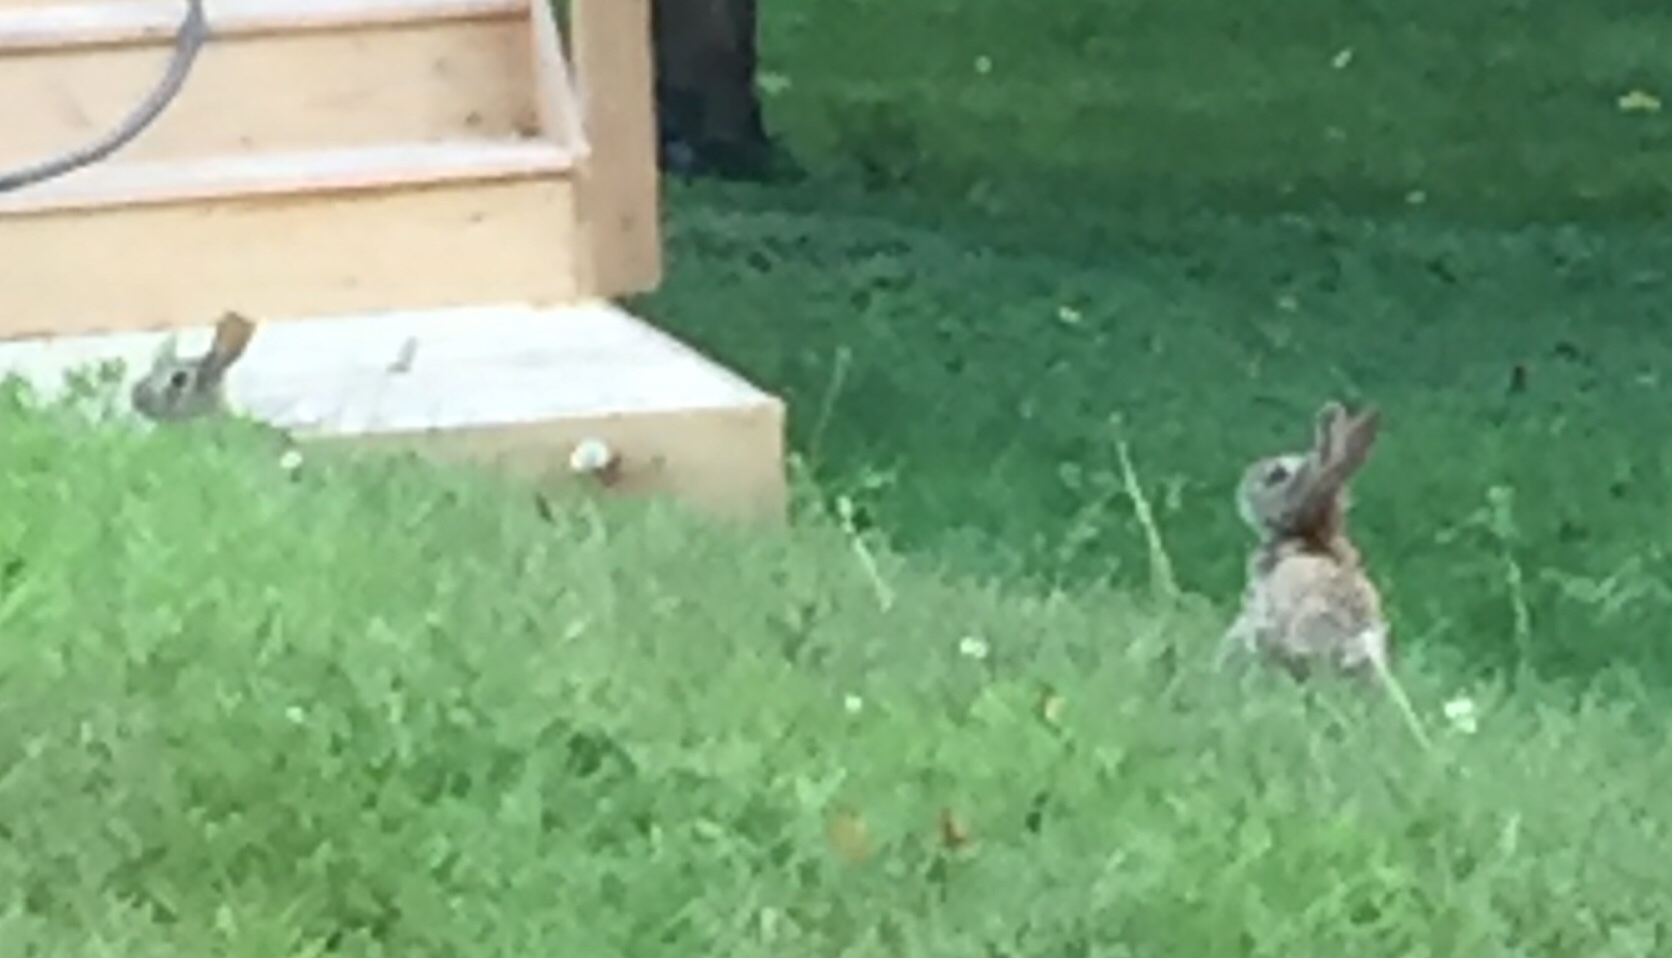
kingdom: Animalia
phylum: Chordata
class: Mammalia
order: Lagomorpha
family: Leporidae
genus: Sylvilagus
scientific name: Sylvilagus floridanus
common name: Eastern cottontail
